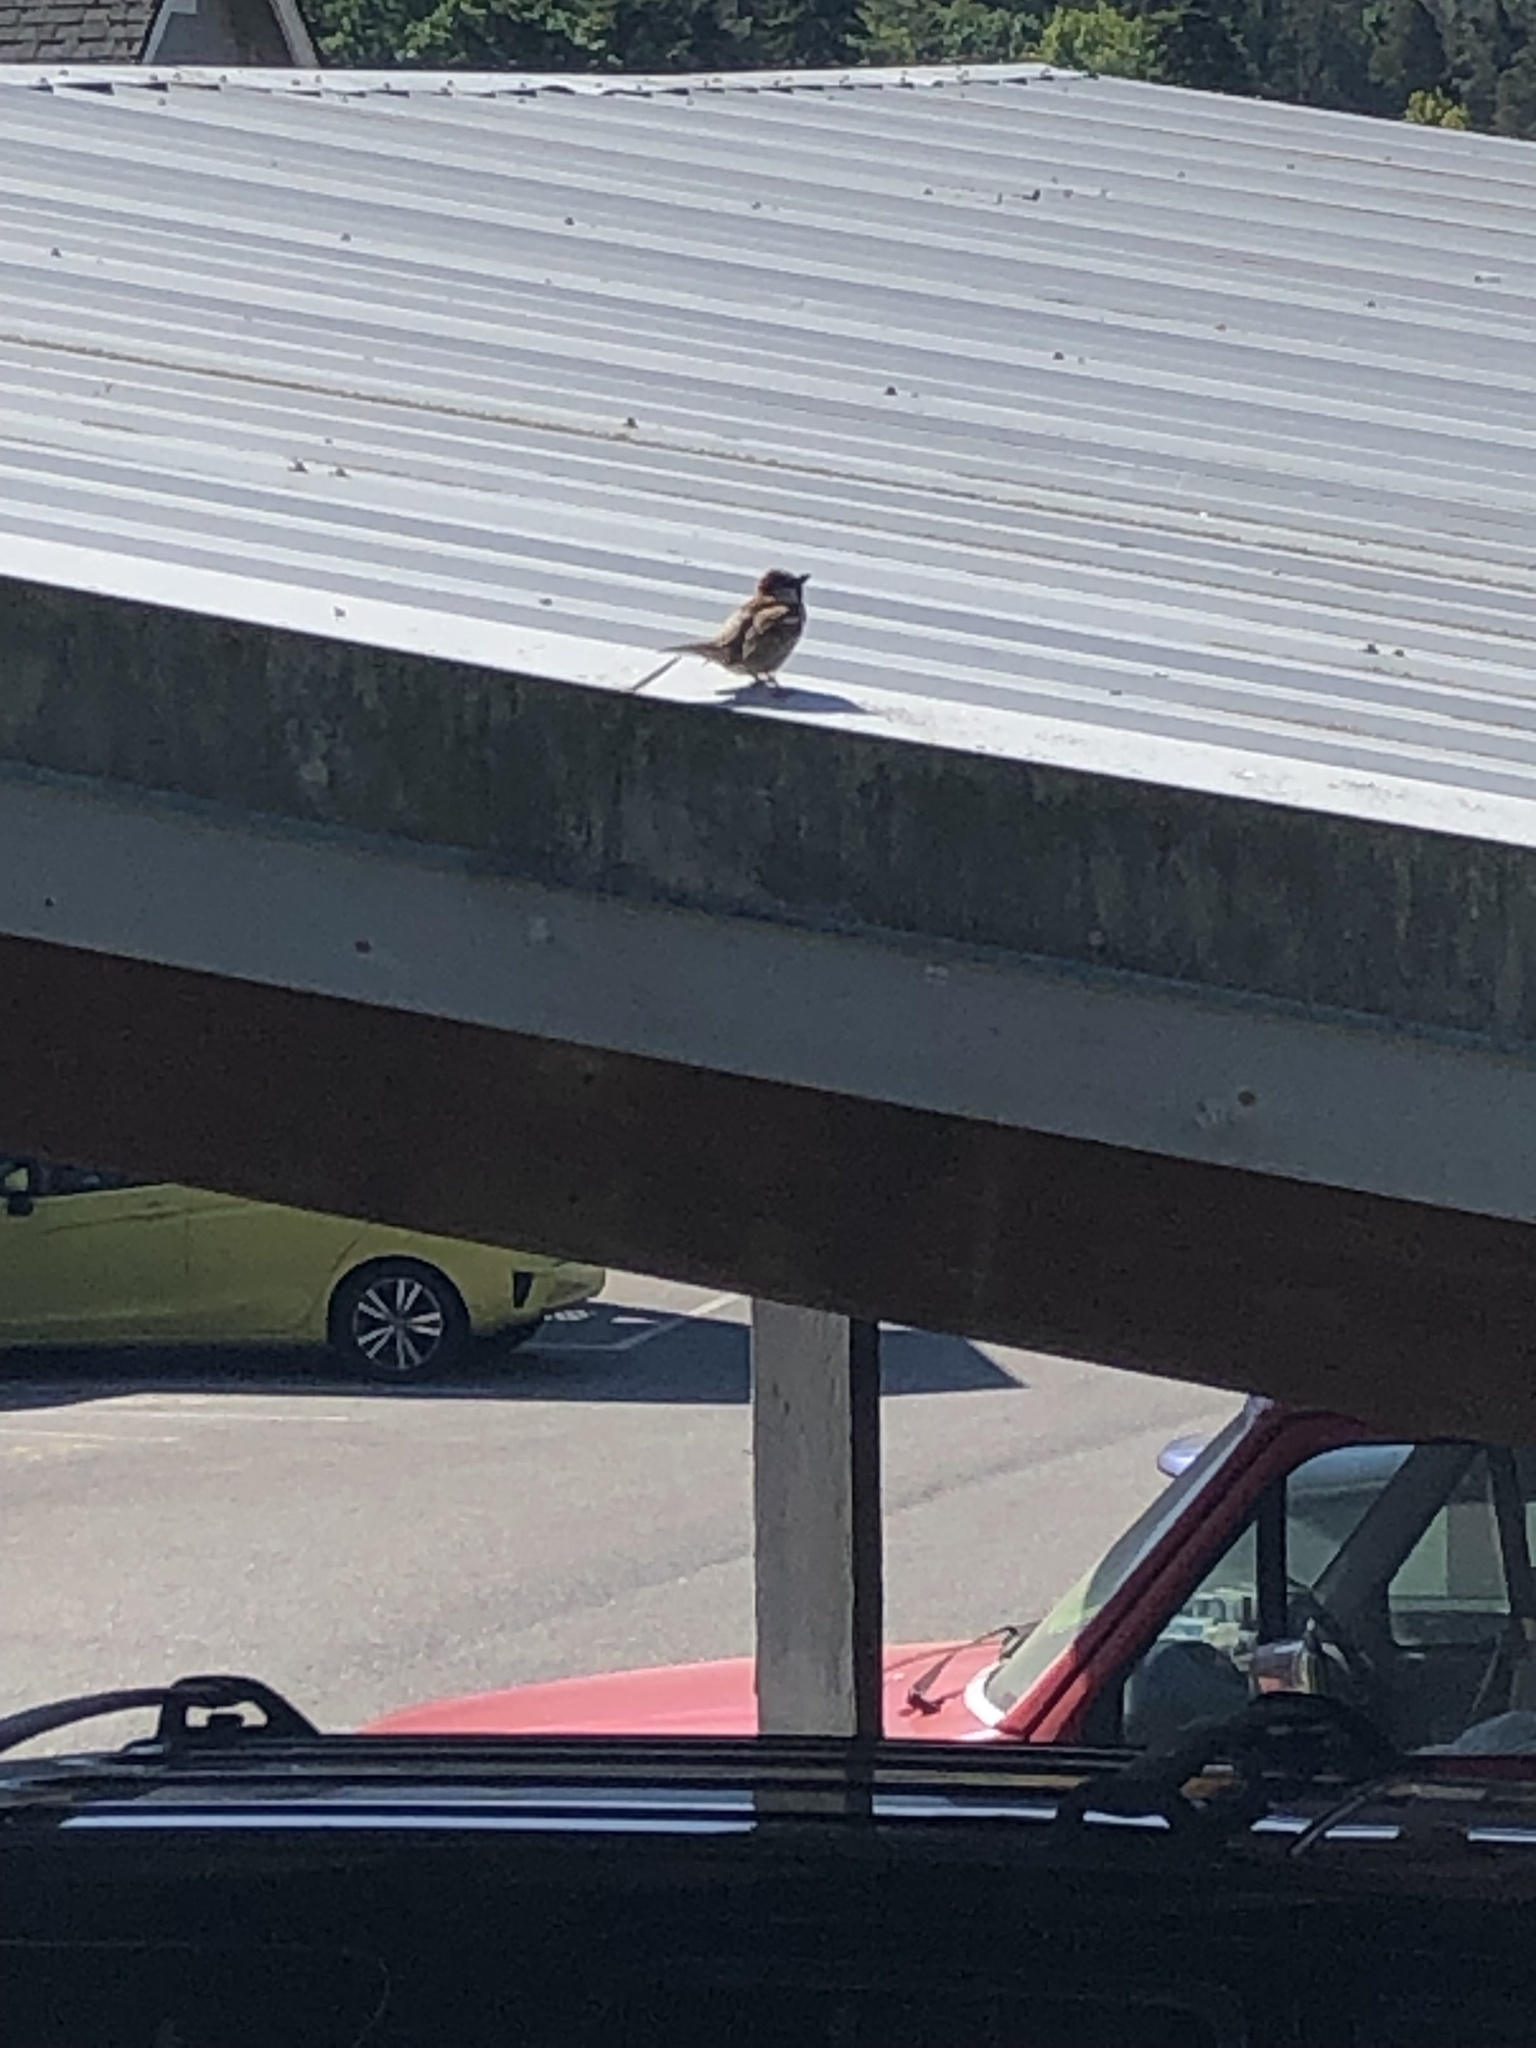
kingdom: Animalia
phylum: Chordata
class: Aves
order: Passeriformes
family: Passeridae
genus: Passer
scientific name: Passer domesticus
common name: House sparrow
